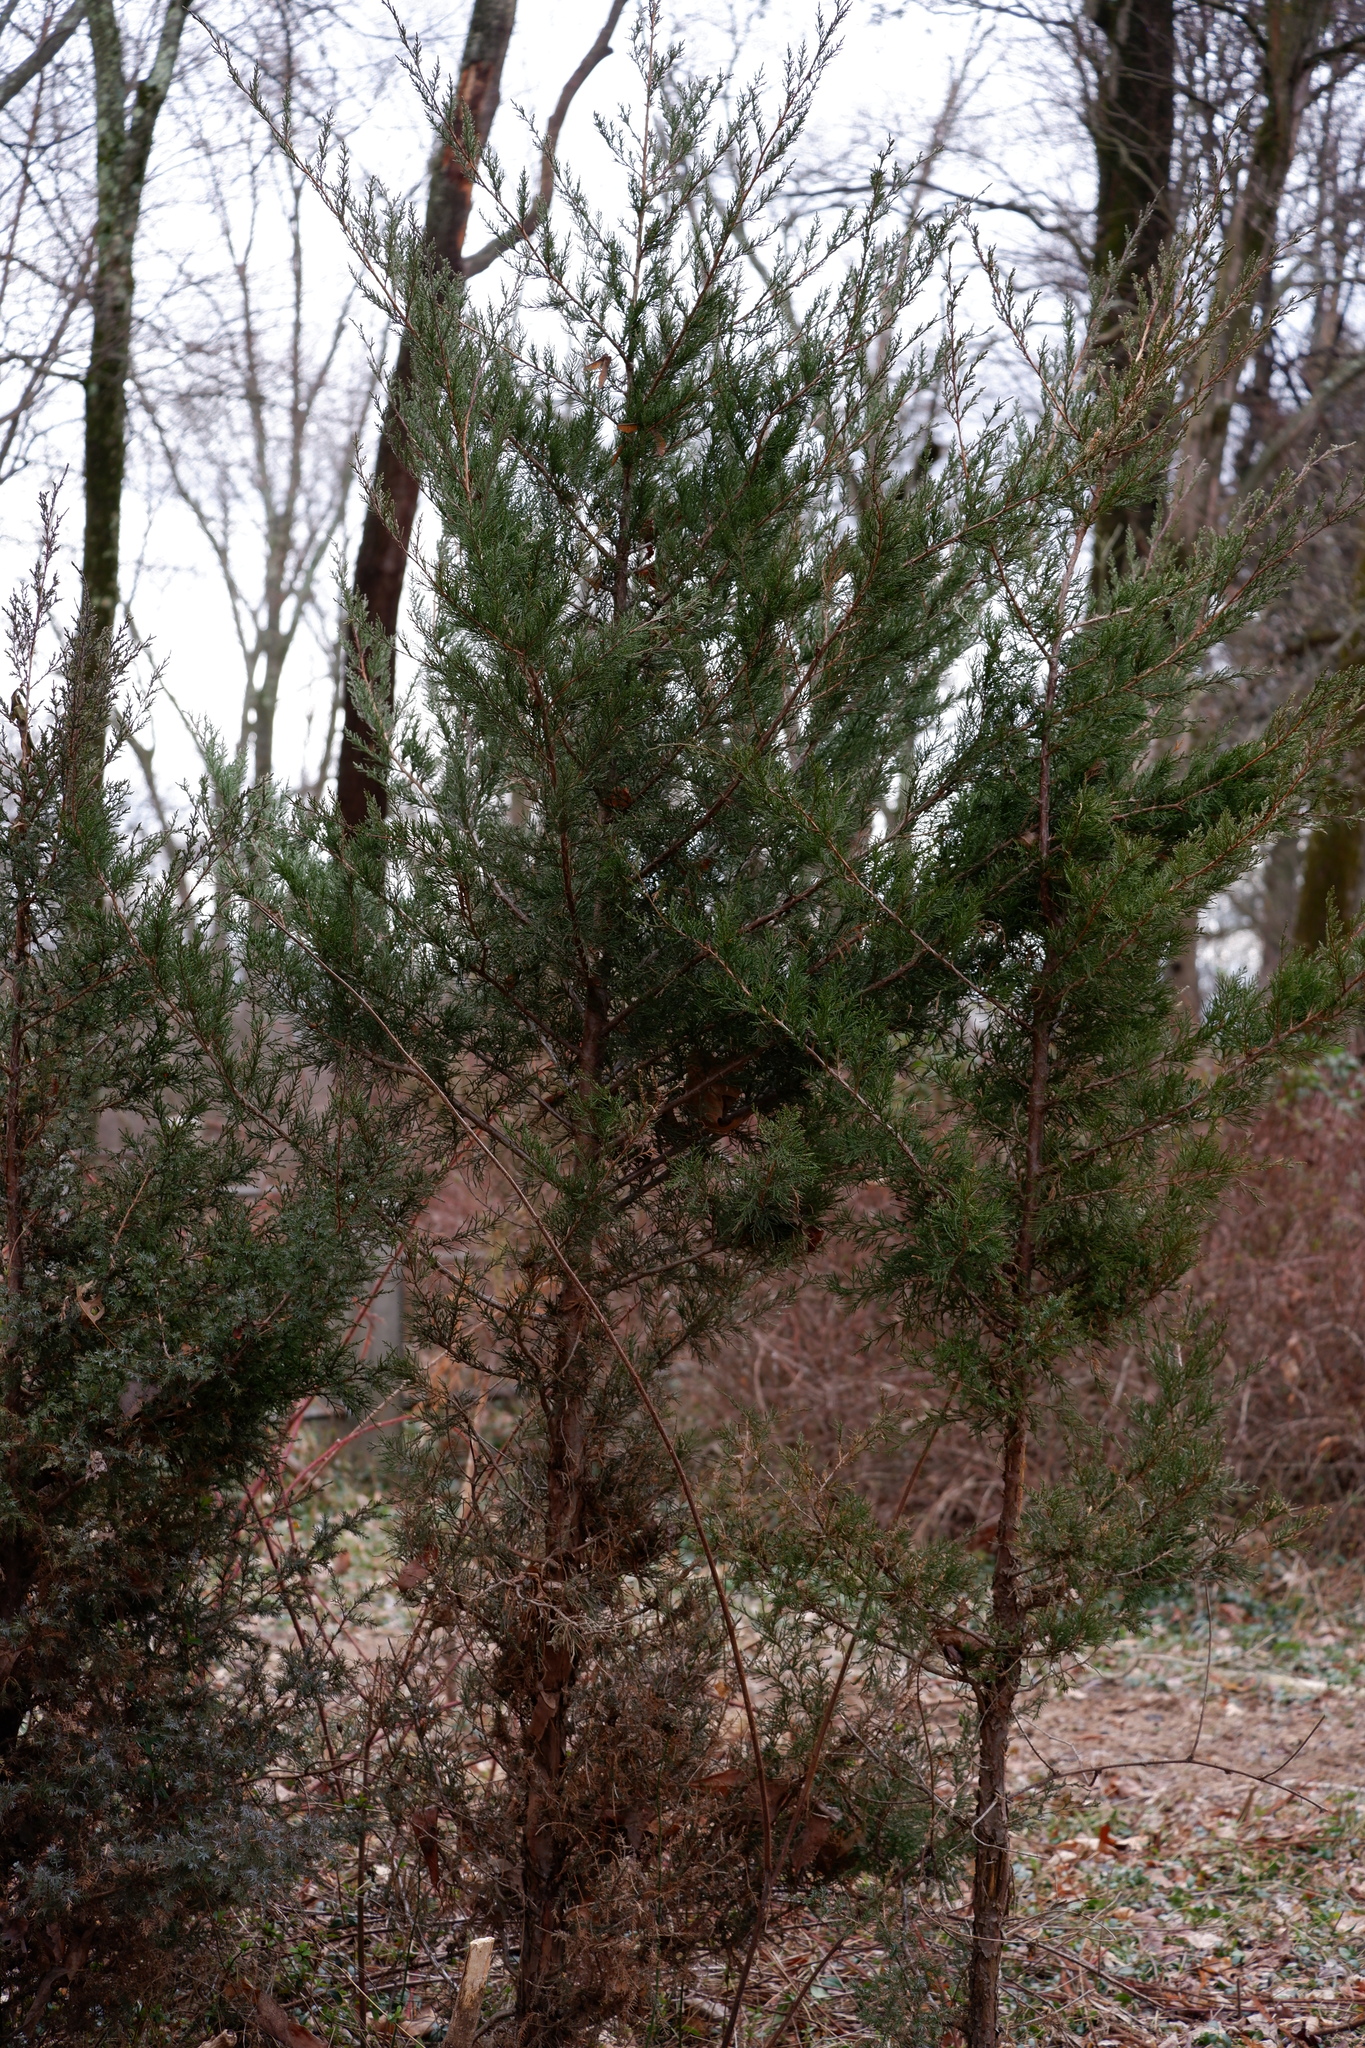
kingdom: Plantae
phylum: Tracheophyta
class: Pinopsida
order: Pinales
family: Cupressaceae
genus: Juniperus
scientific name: Juniperus virginiana
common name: Red juniper
